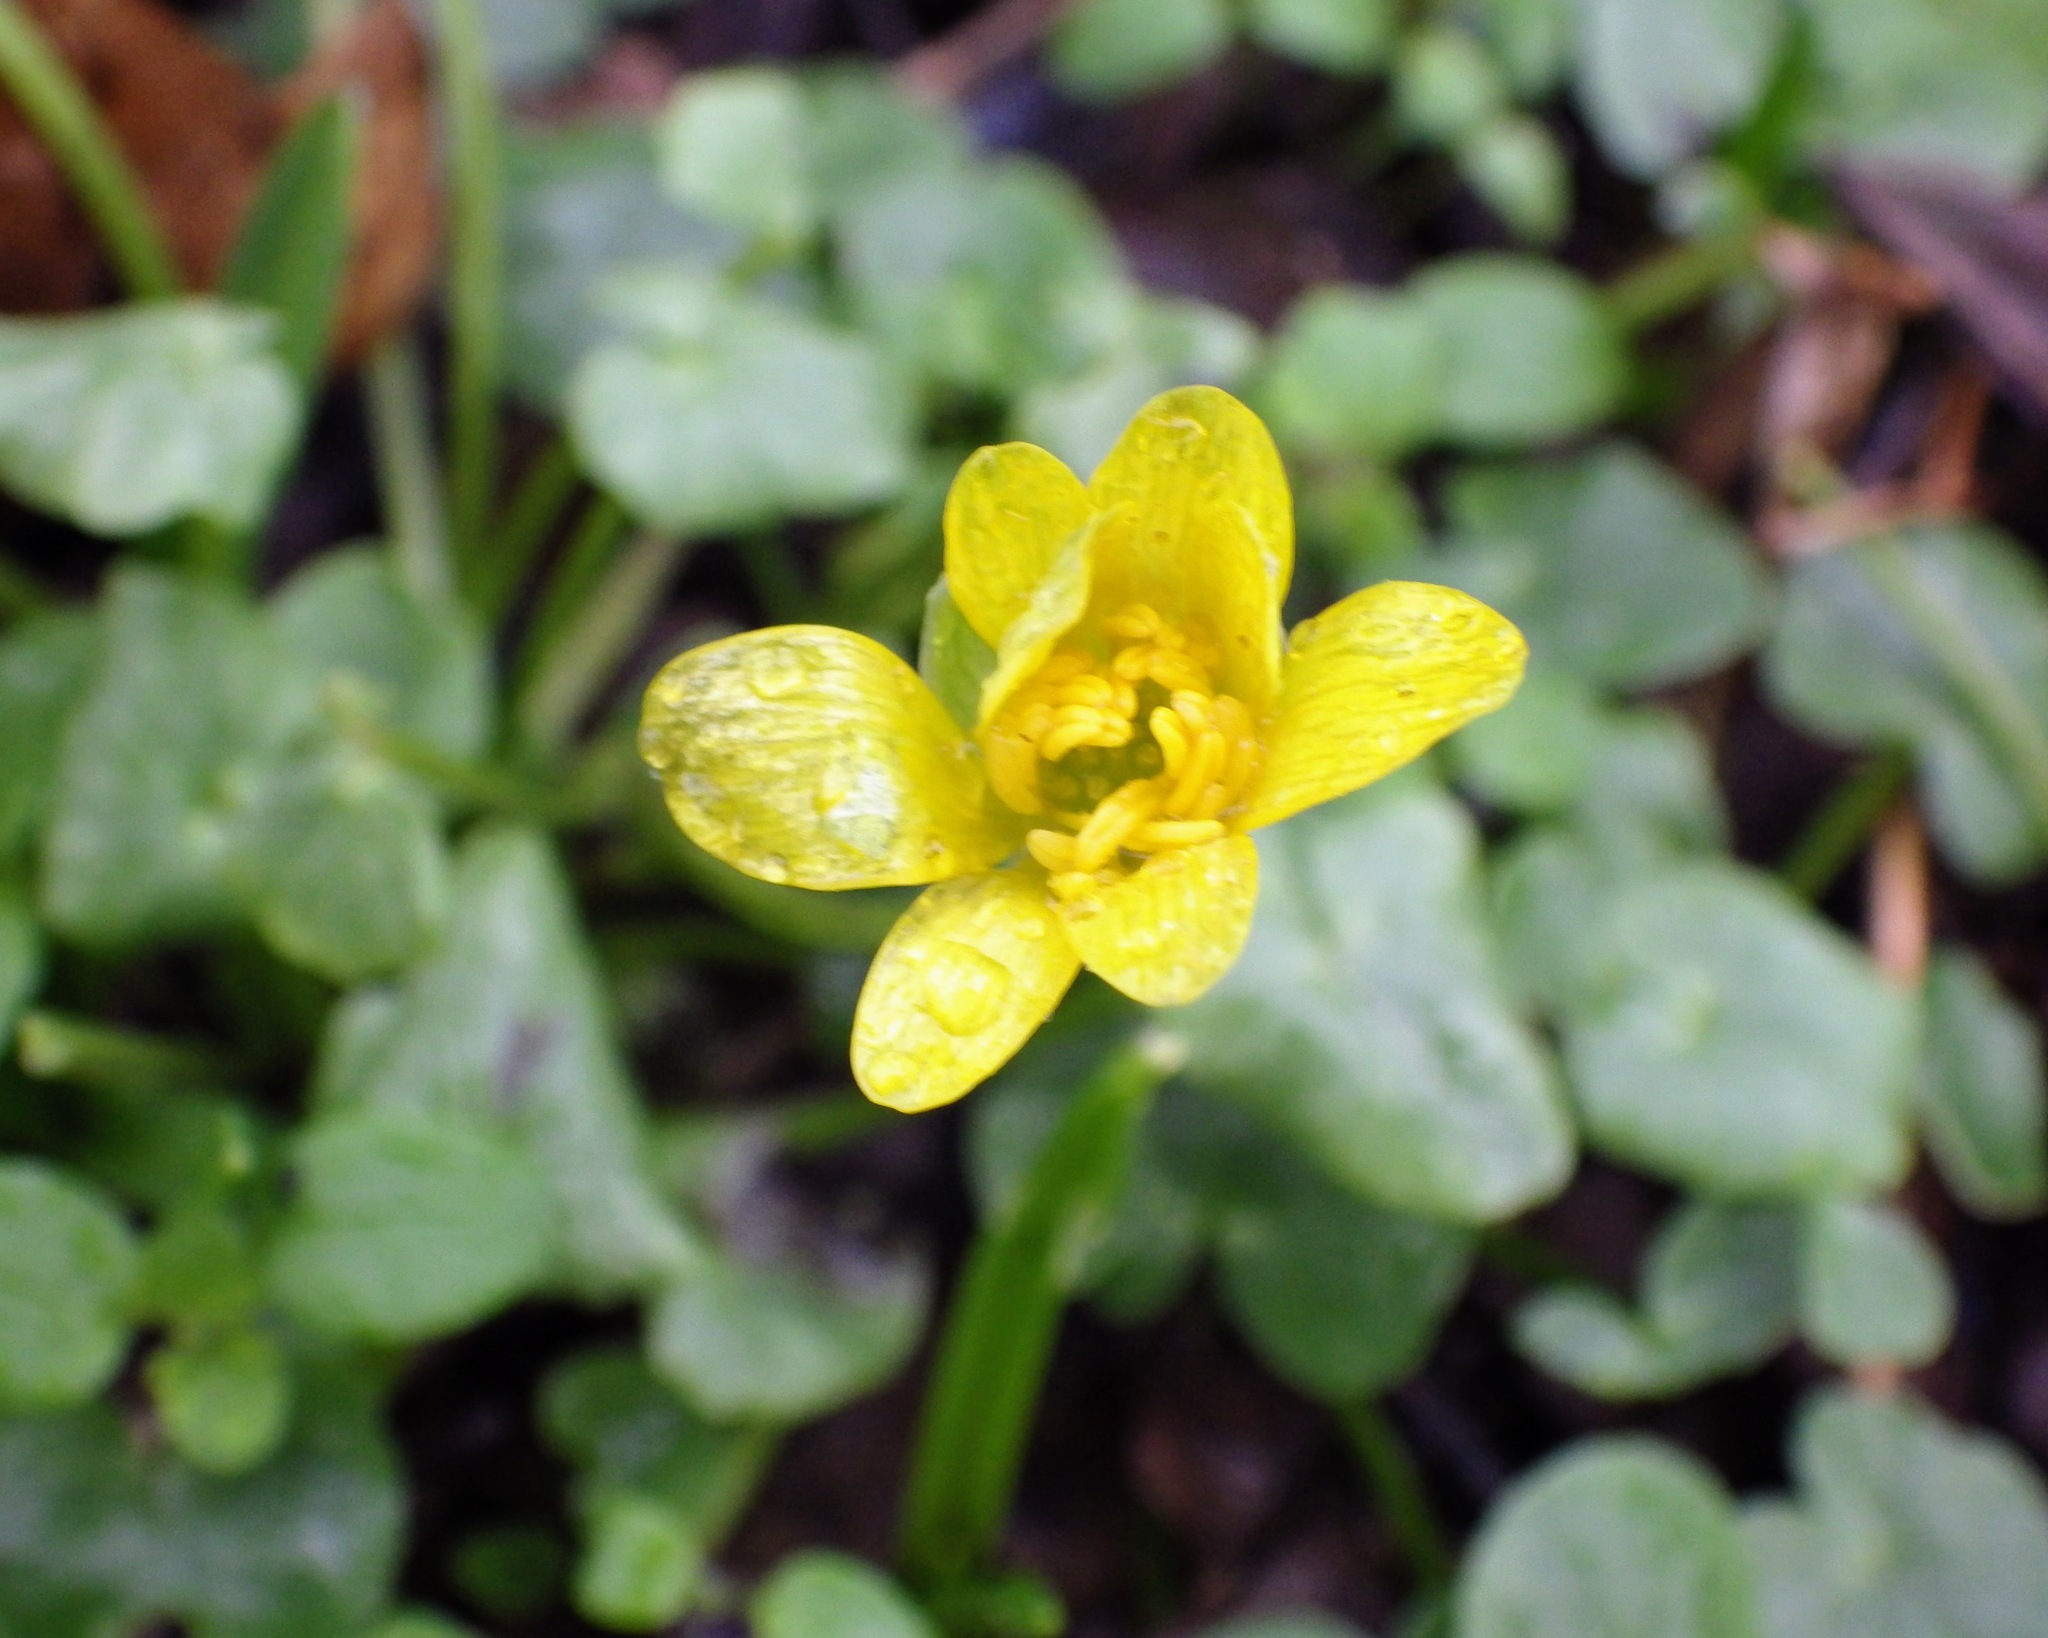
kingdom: Plantae
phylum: Tracheophyta
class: Magnoliopsida
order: Ranunculales
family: Ranunculaceae
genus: Ficaria
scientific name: Ficaria verna
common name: Lesser celandine
